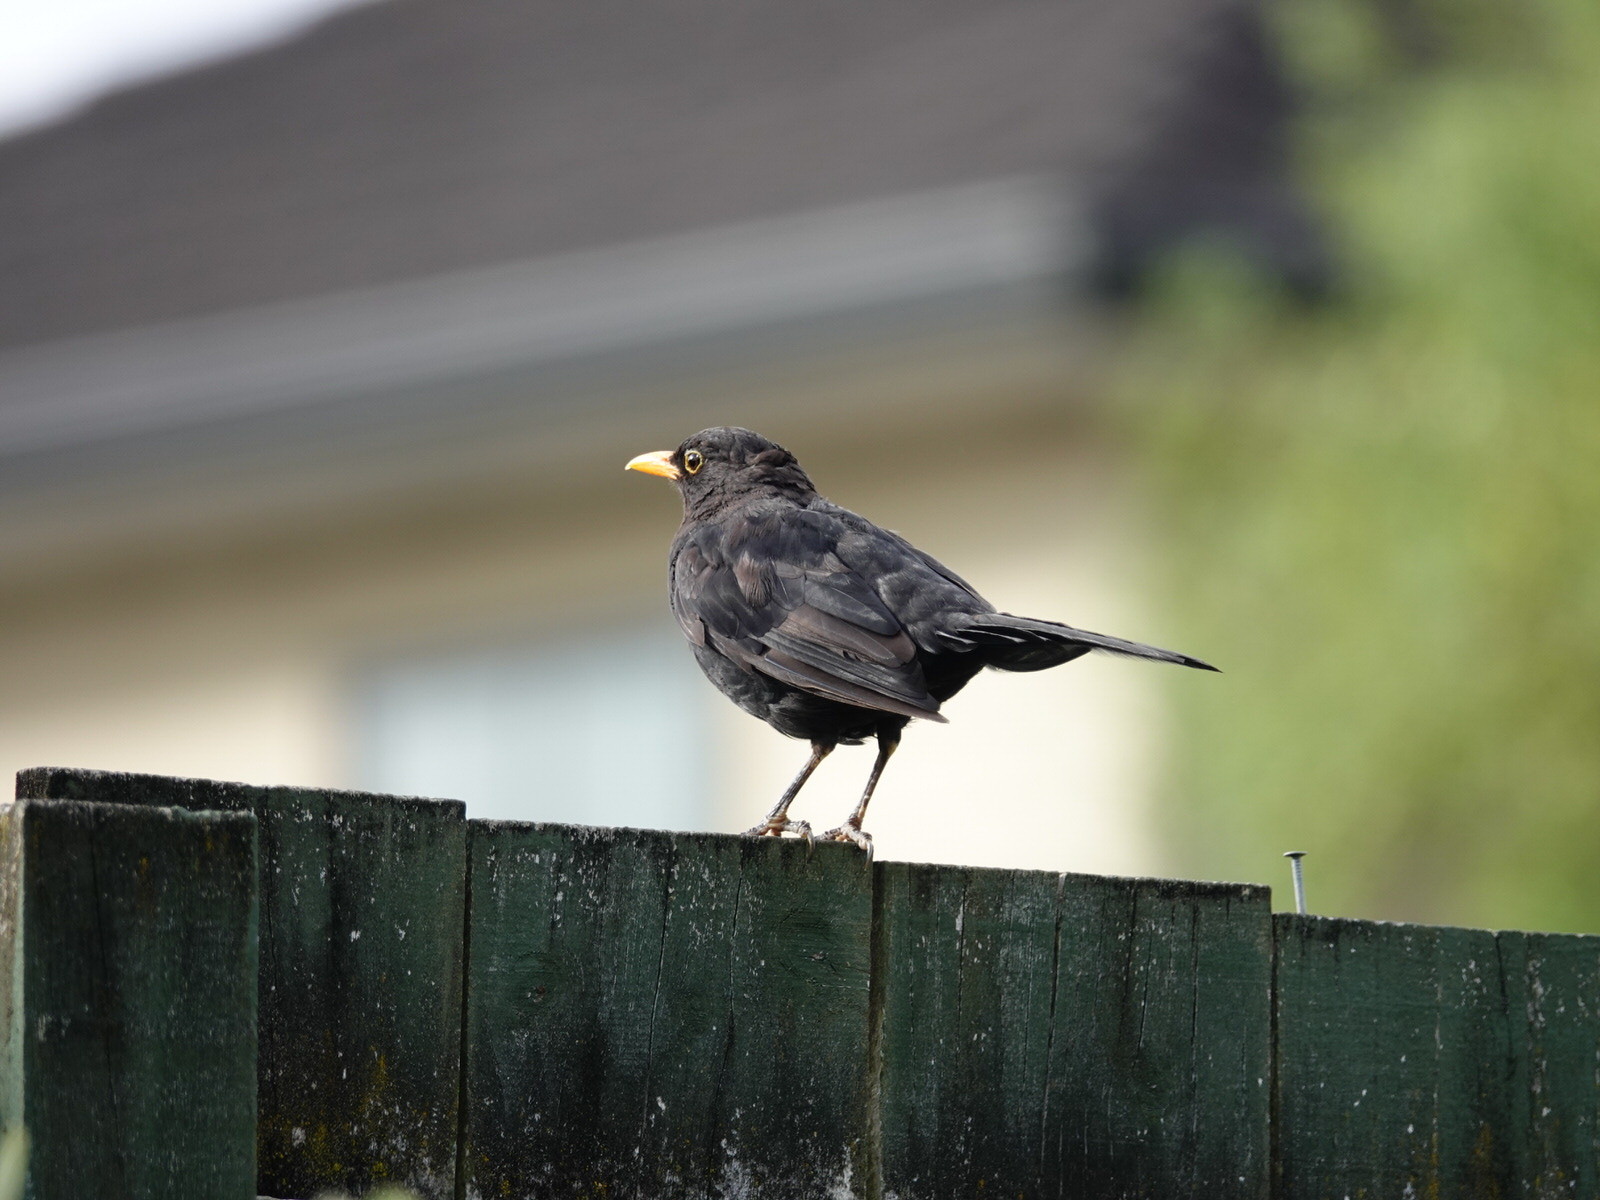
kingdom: Animalia
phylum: Chordata
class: Aves
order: Passeriformes
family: Turdidae
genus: Turdus
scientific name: Turdus merula
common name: Common blackbird
